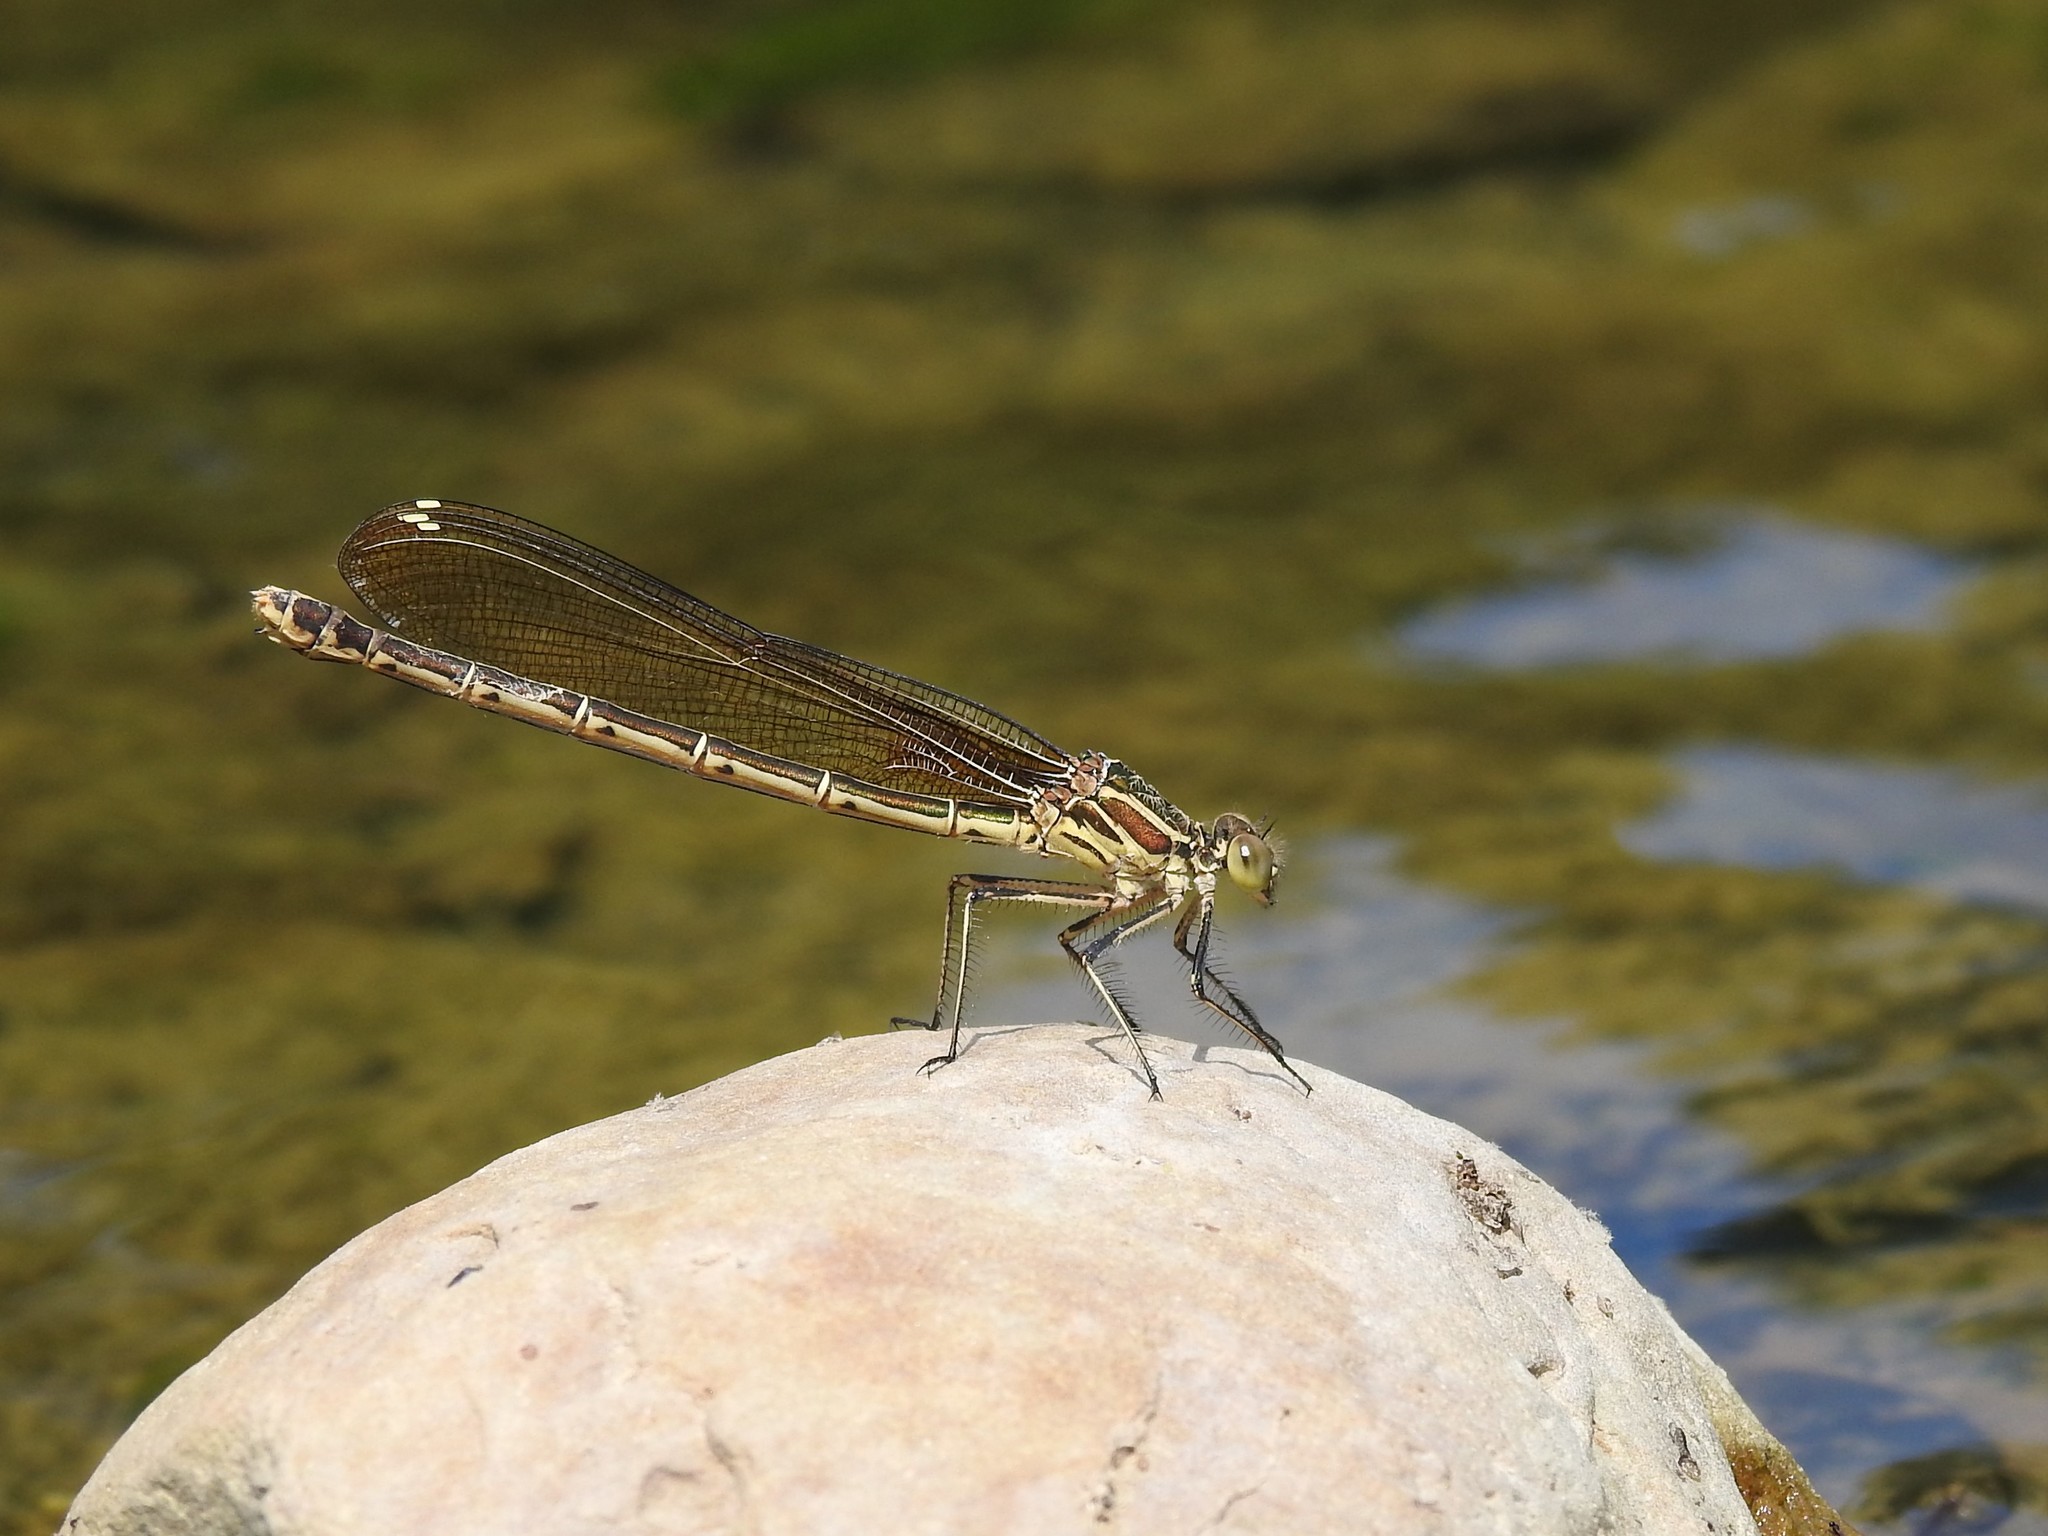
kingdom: Animalia
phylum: Arthropoda
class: Insecta
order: Odonata
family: Calopterygidae
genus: Hetaerina
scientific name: Hetaerina americana
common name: American rubyspot
